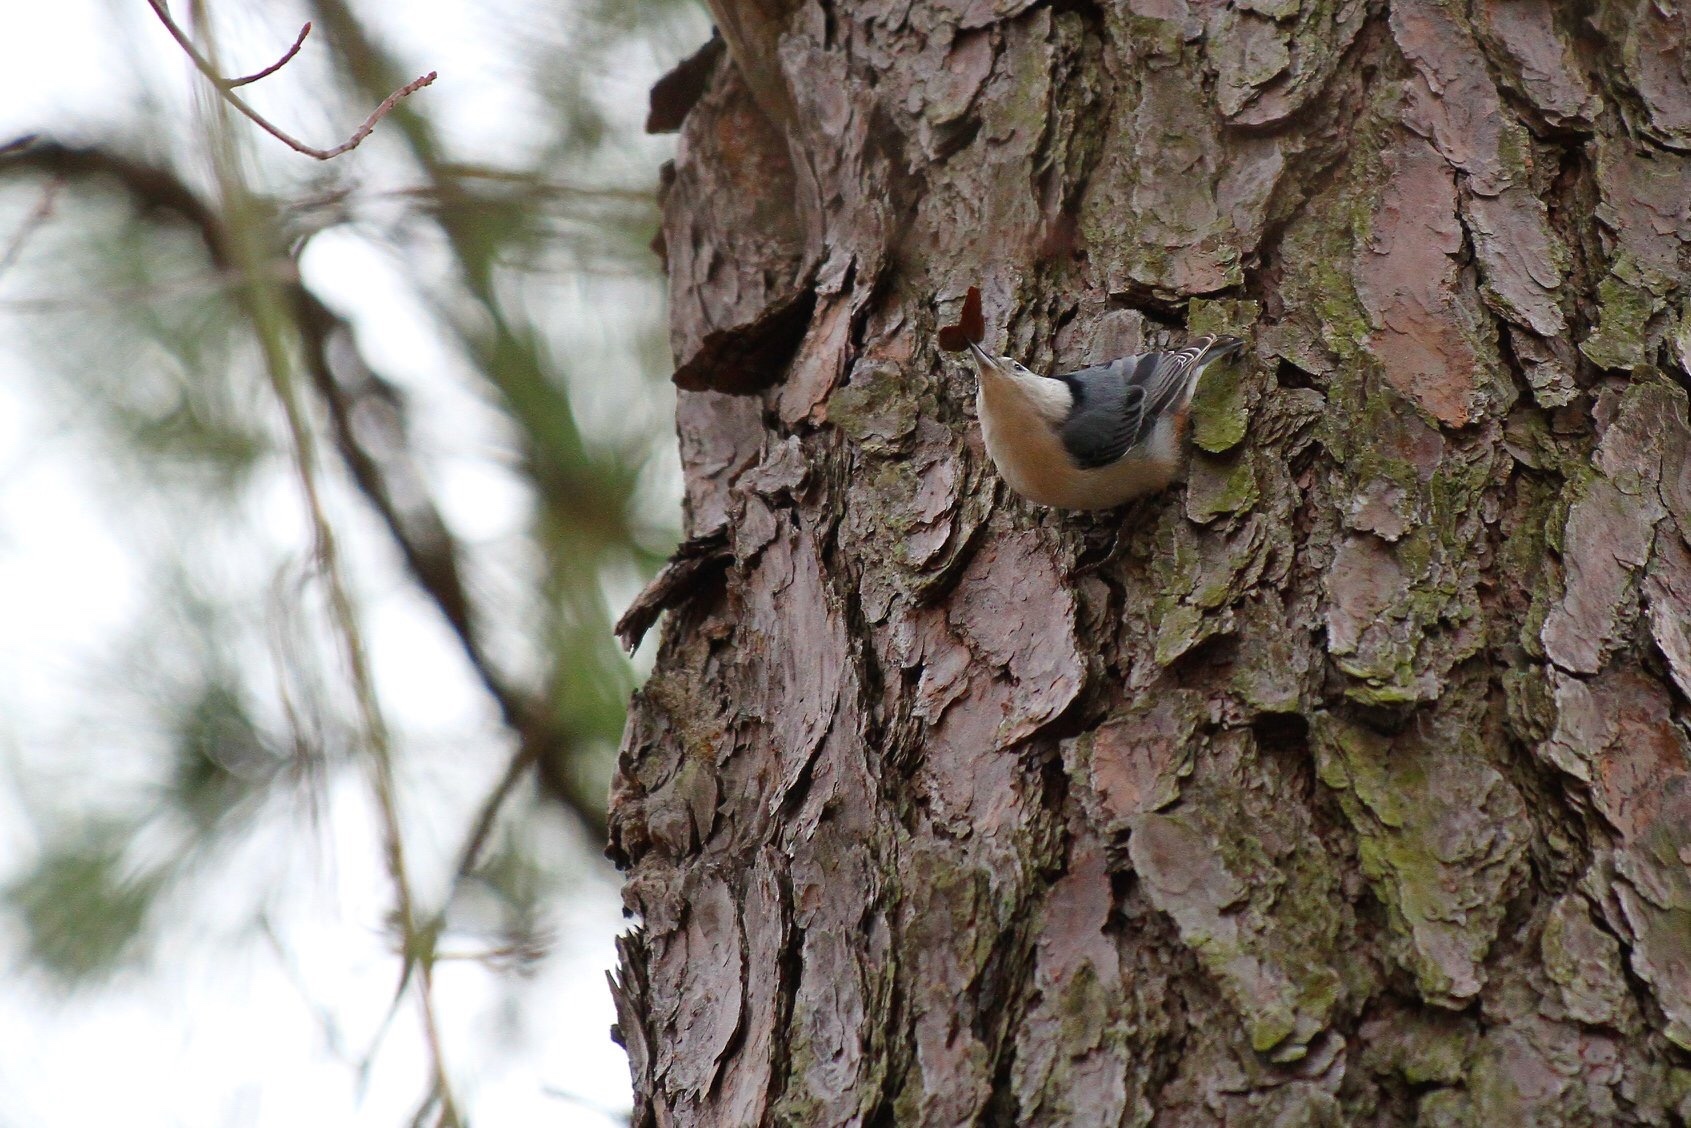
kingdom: Animalia
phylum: Chordata
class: Aves
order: Passeriformes
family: Sittidae
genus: Sitta
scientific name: Sitta carolinensis
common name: White-breasted nuthatch
